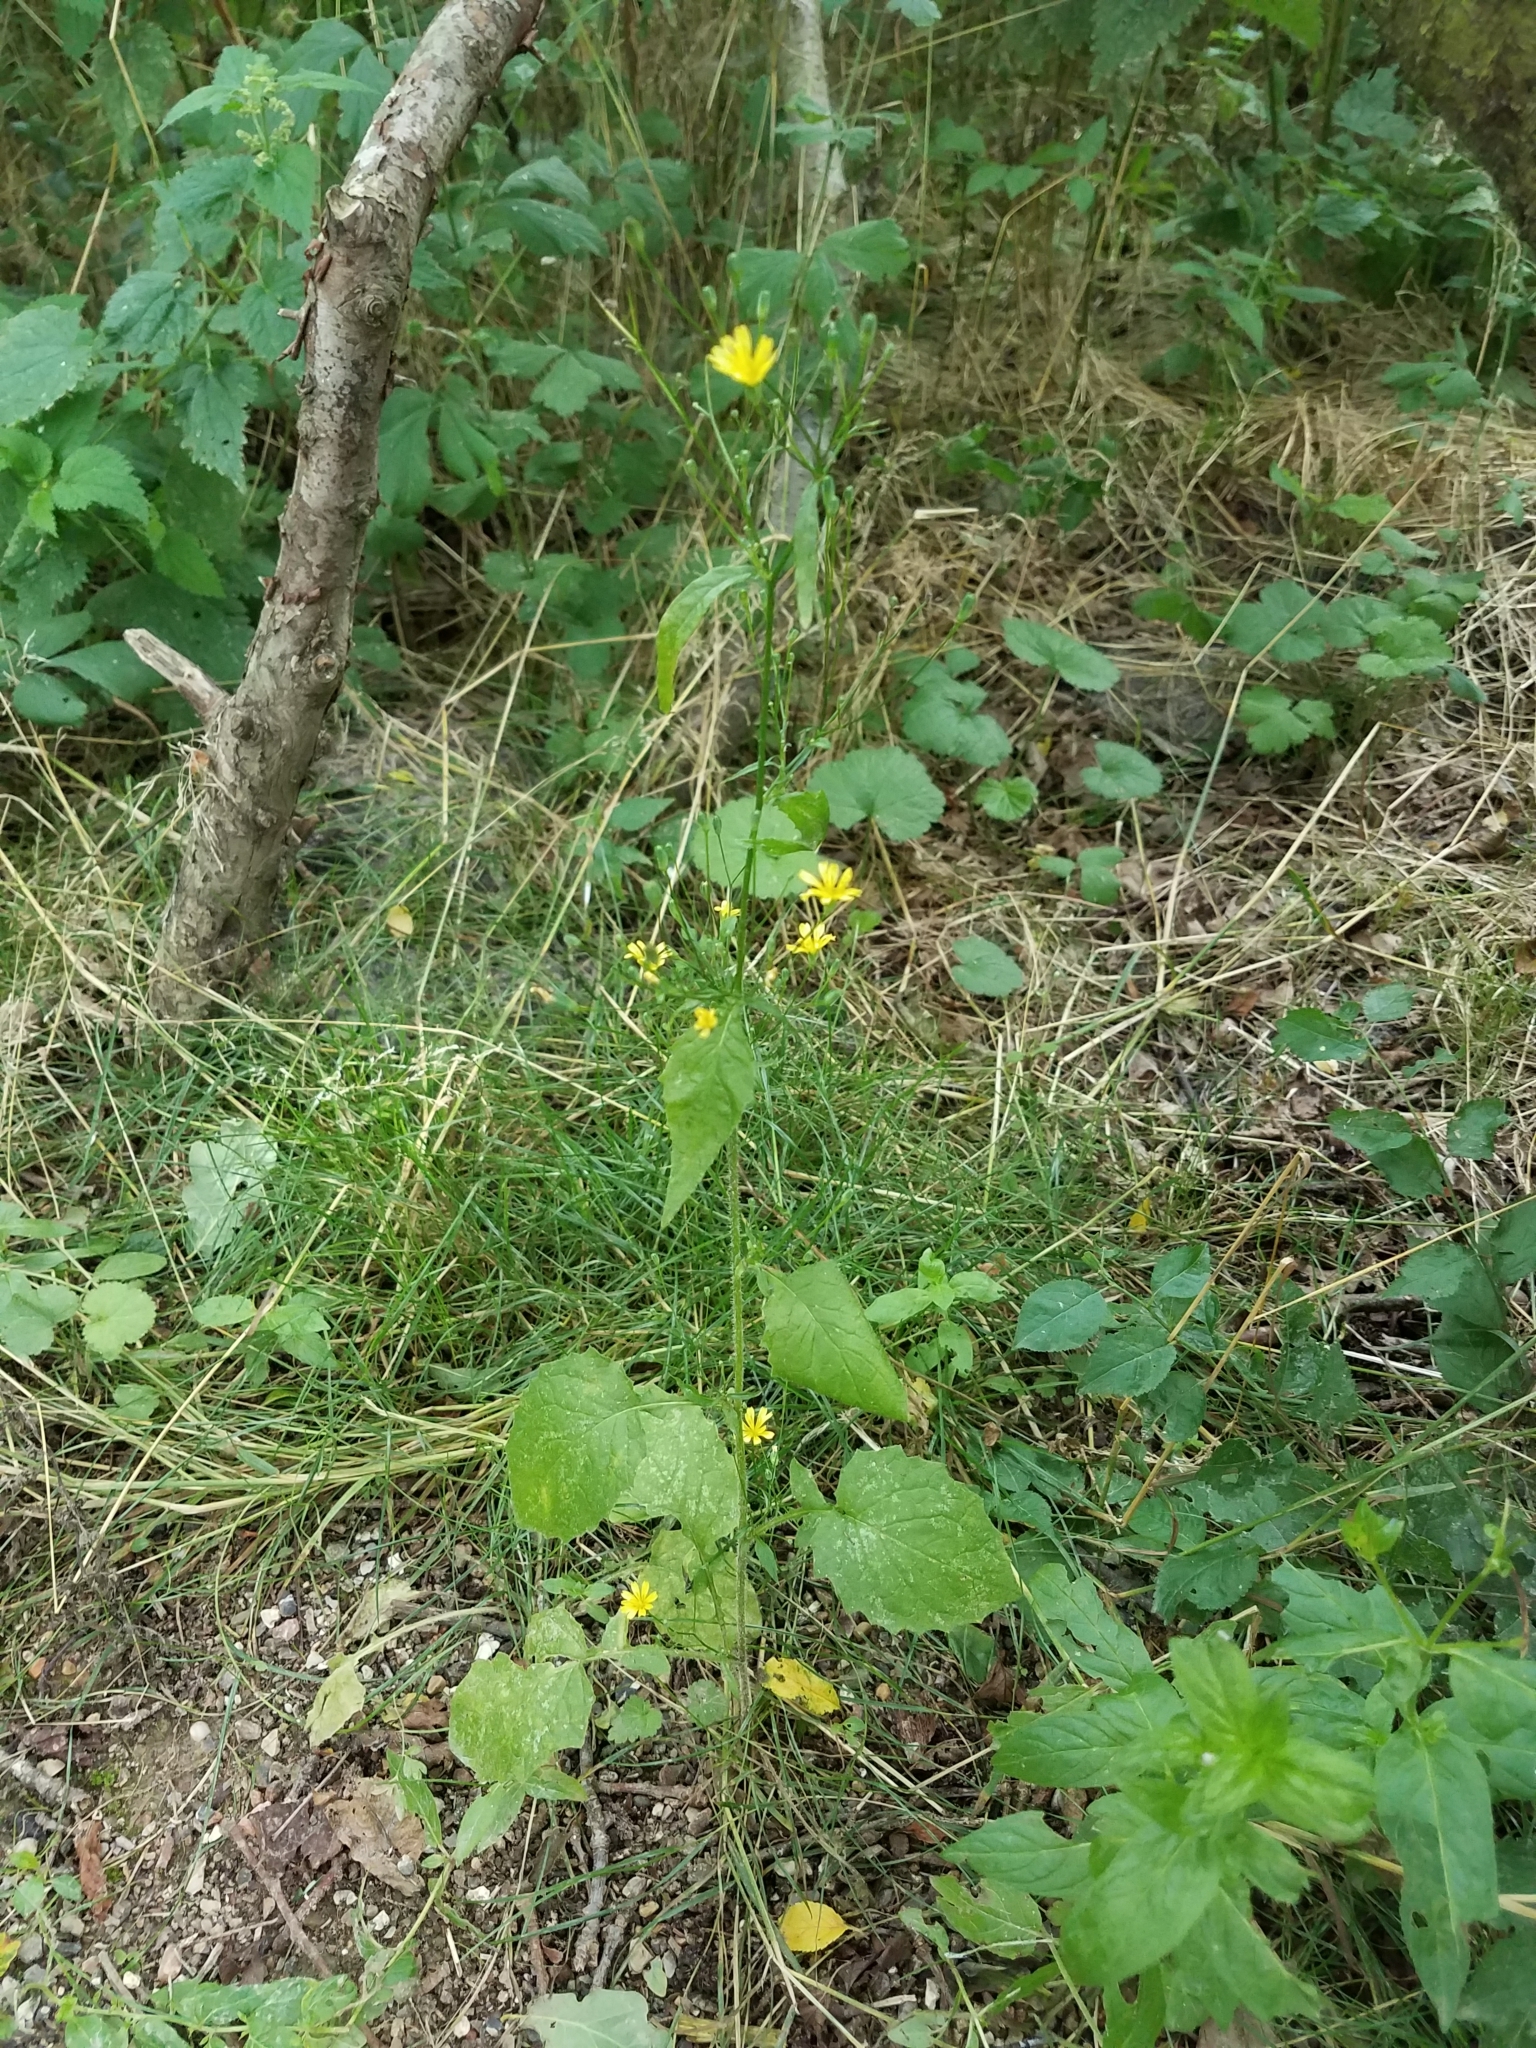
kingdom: Plantae
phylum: Tracheophyta
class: Magnoliopsida
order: Asterales
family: Asteraceae
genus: Lapsana
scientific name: Lapsana communis
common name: Nipplewort
